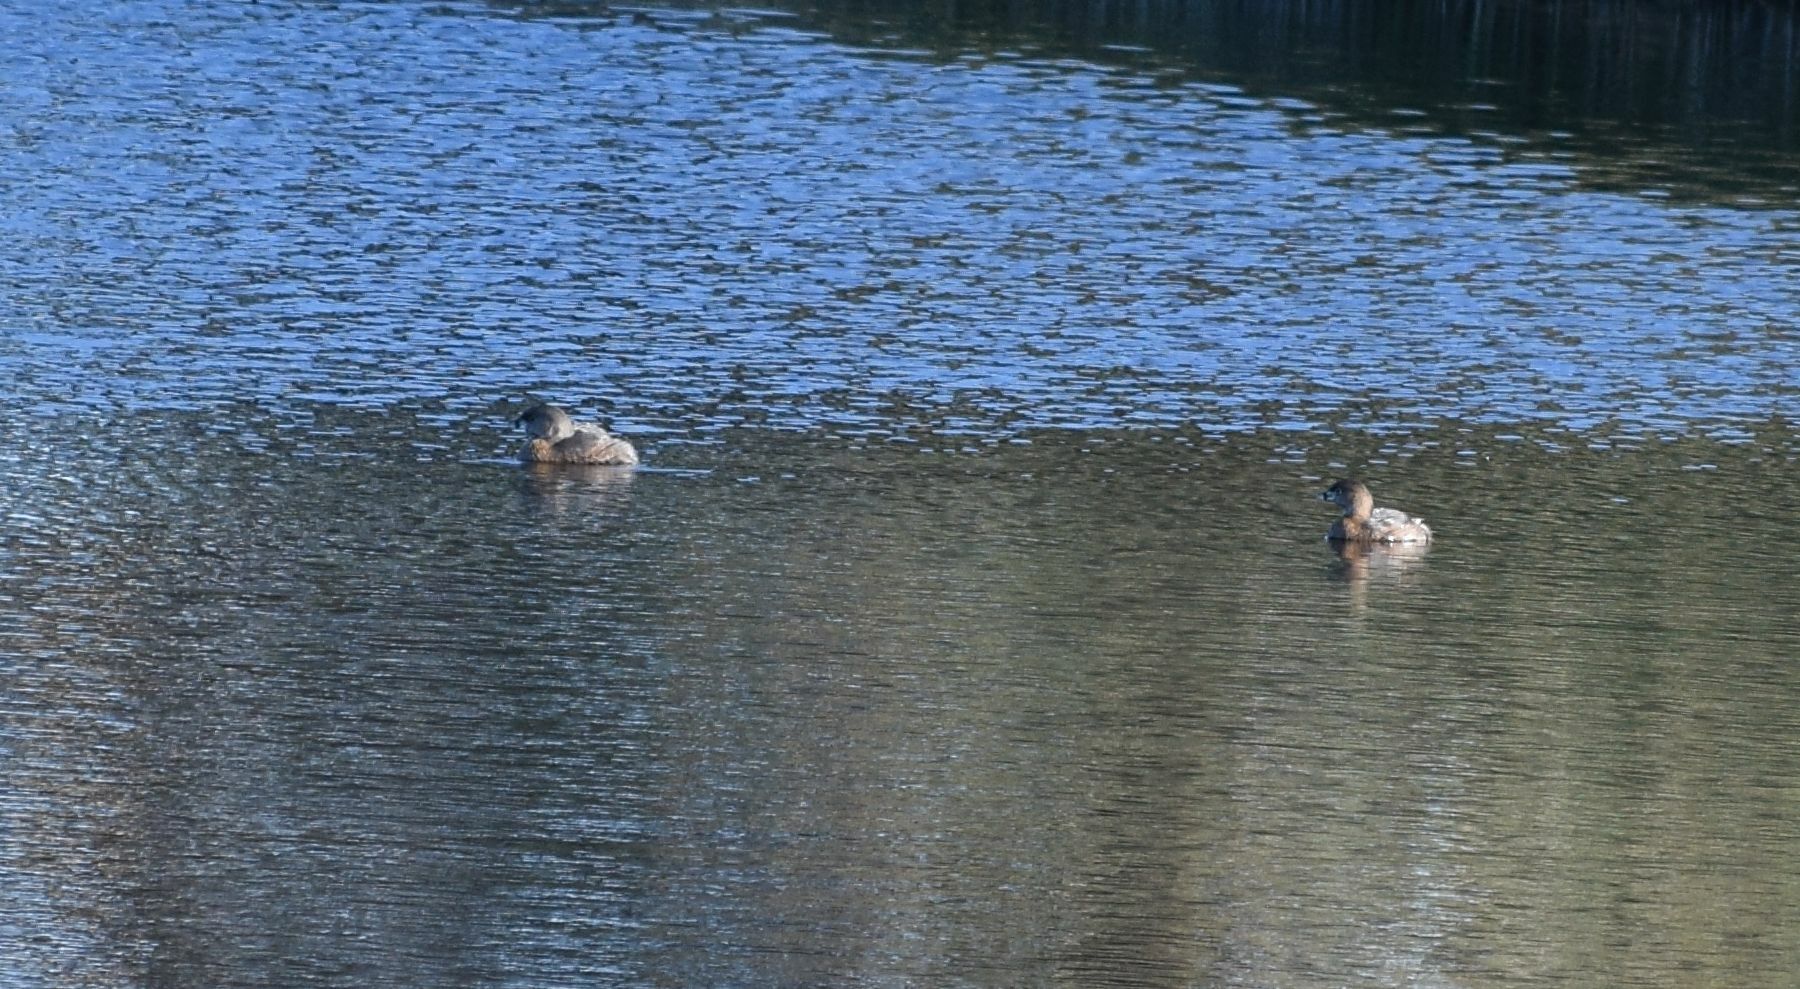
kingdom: Animalia
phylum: Chordata
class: Aves
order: Podicipediformes
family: Podicipedidae
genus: Podilymbus
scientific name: Podilymbus podiceps
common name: Pied-billed grebe
